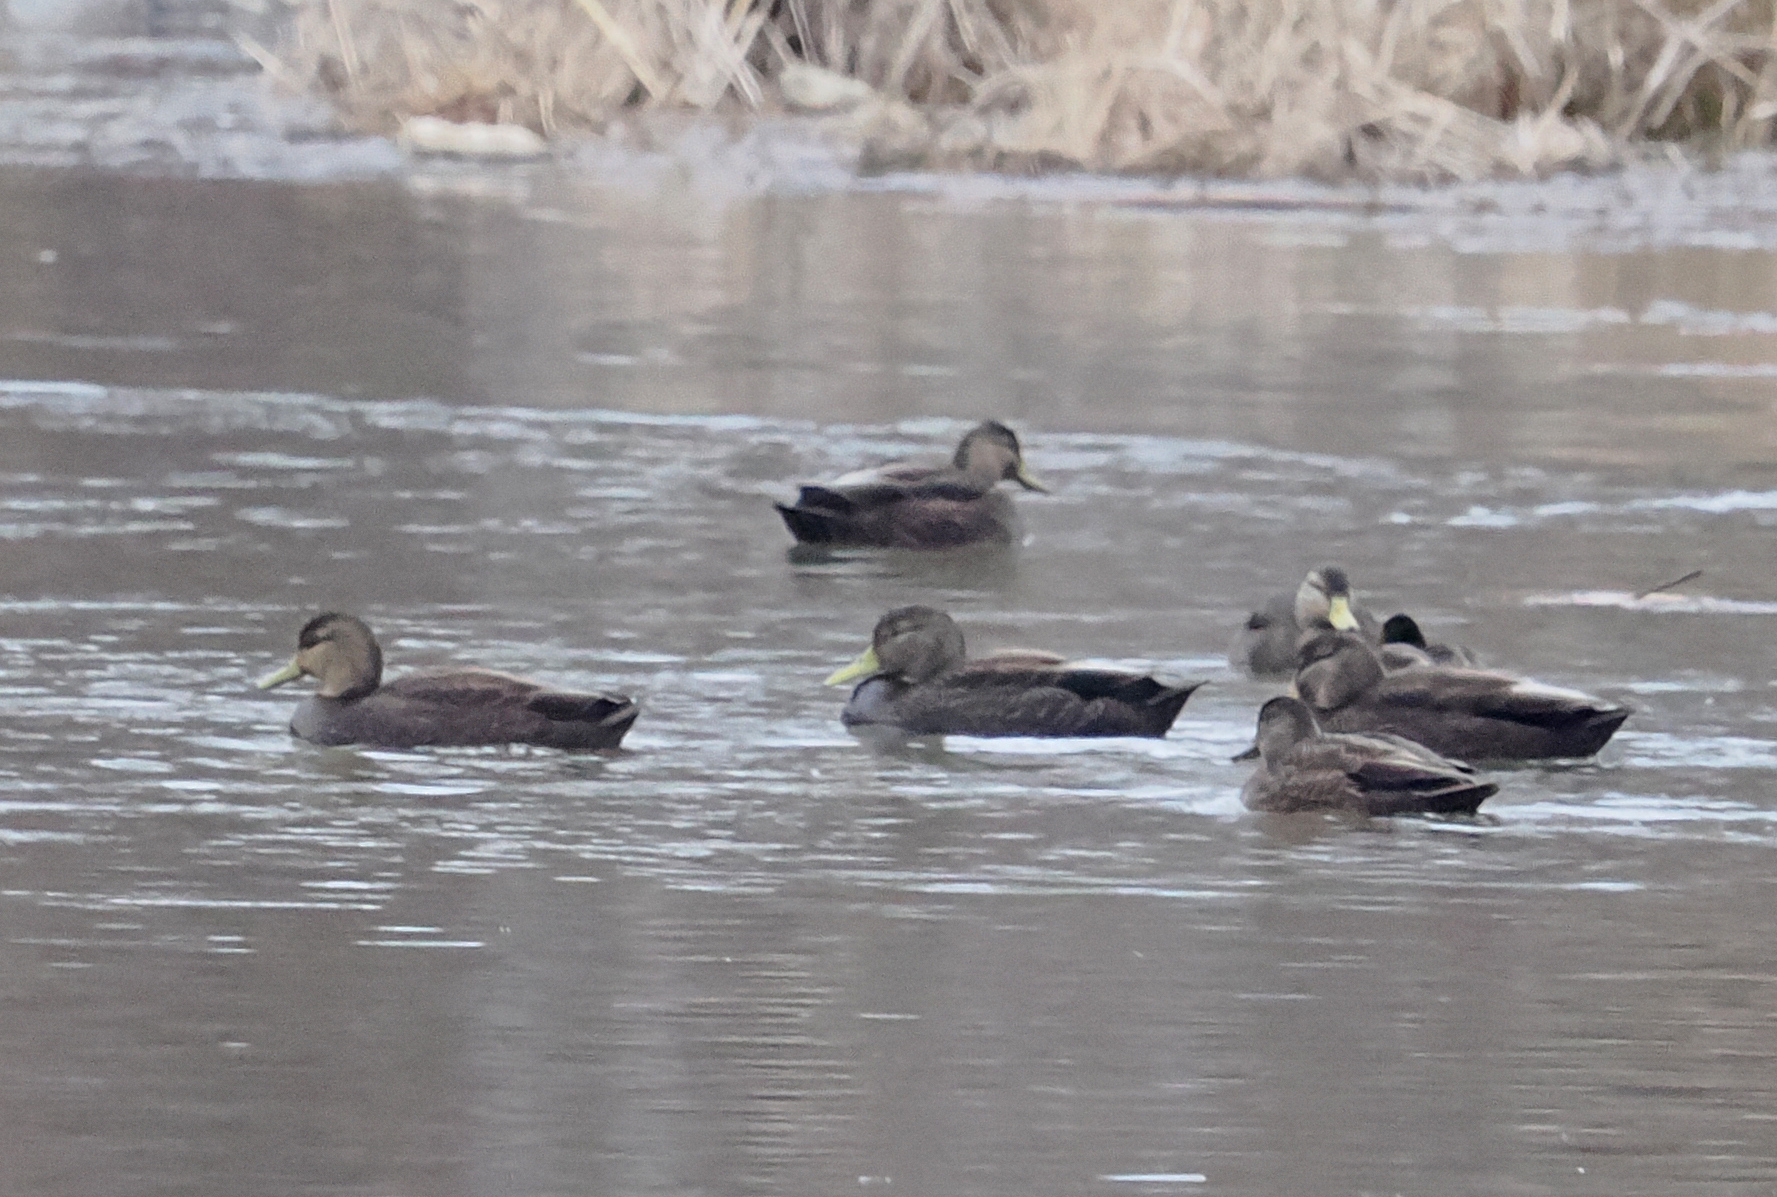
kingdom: Animalia
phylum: Chordata
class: Aves
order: Anseriformes
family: Anatidae
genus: Anas
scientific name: Anas rubripes
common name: American black duck
